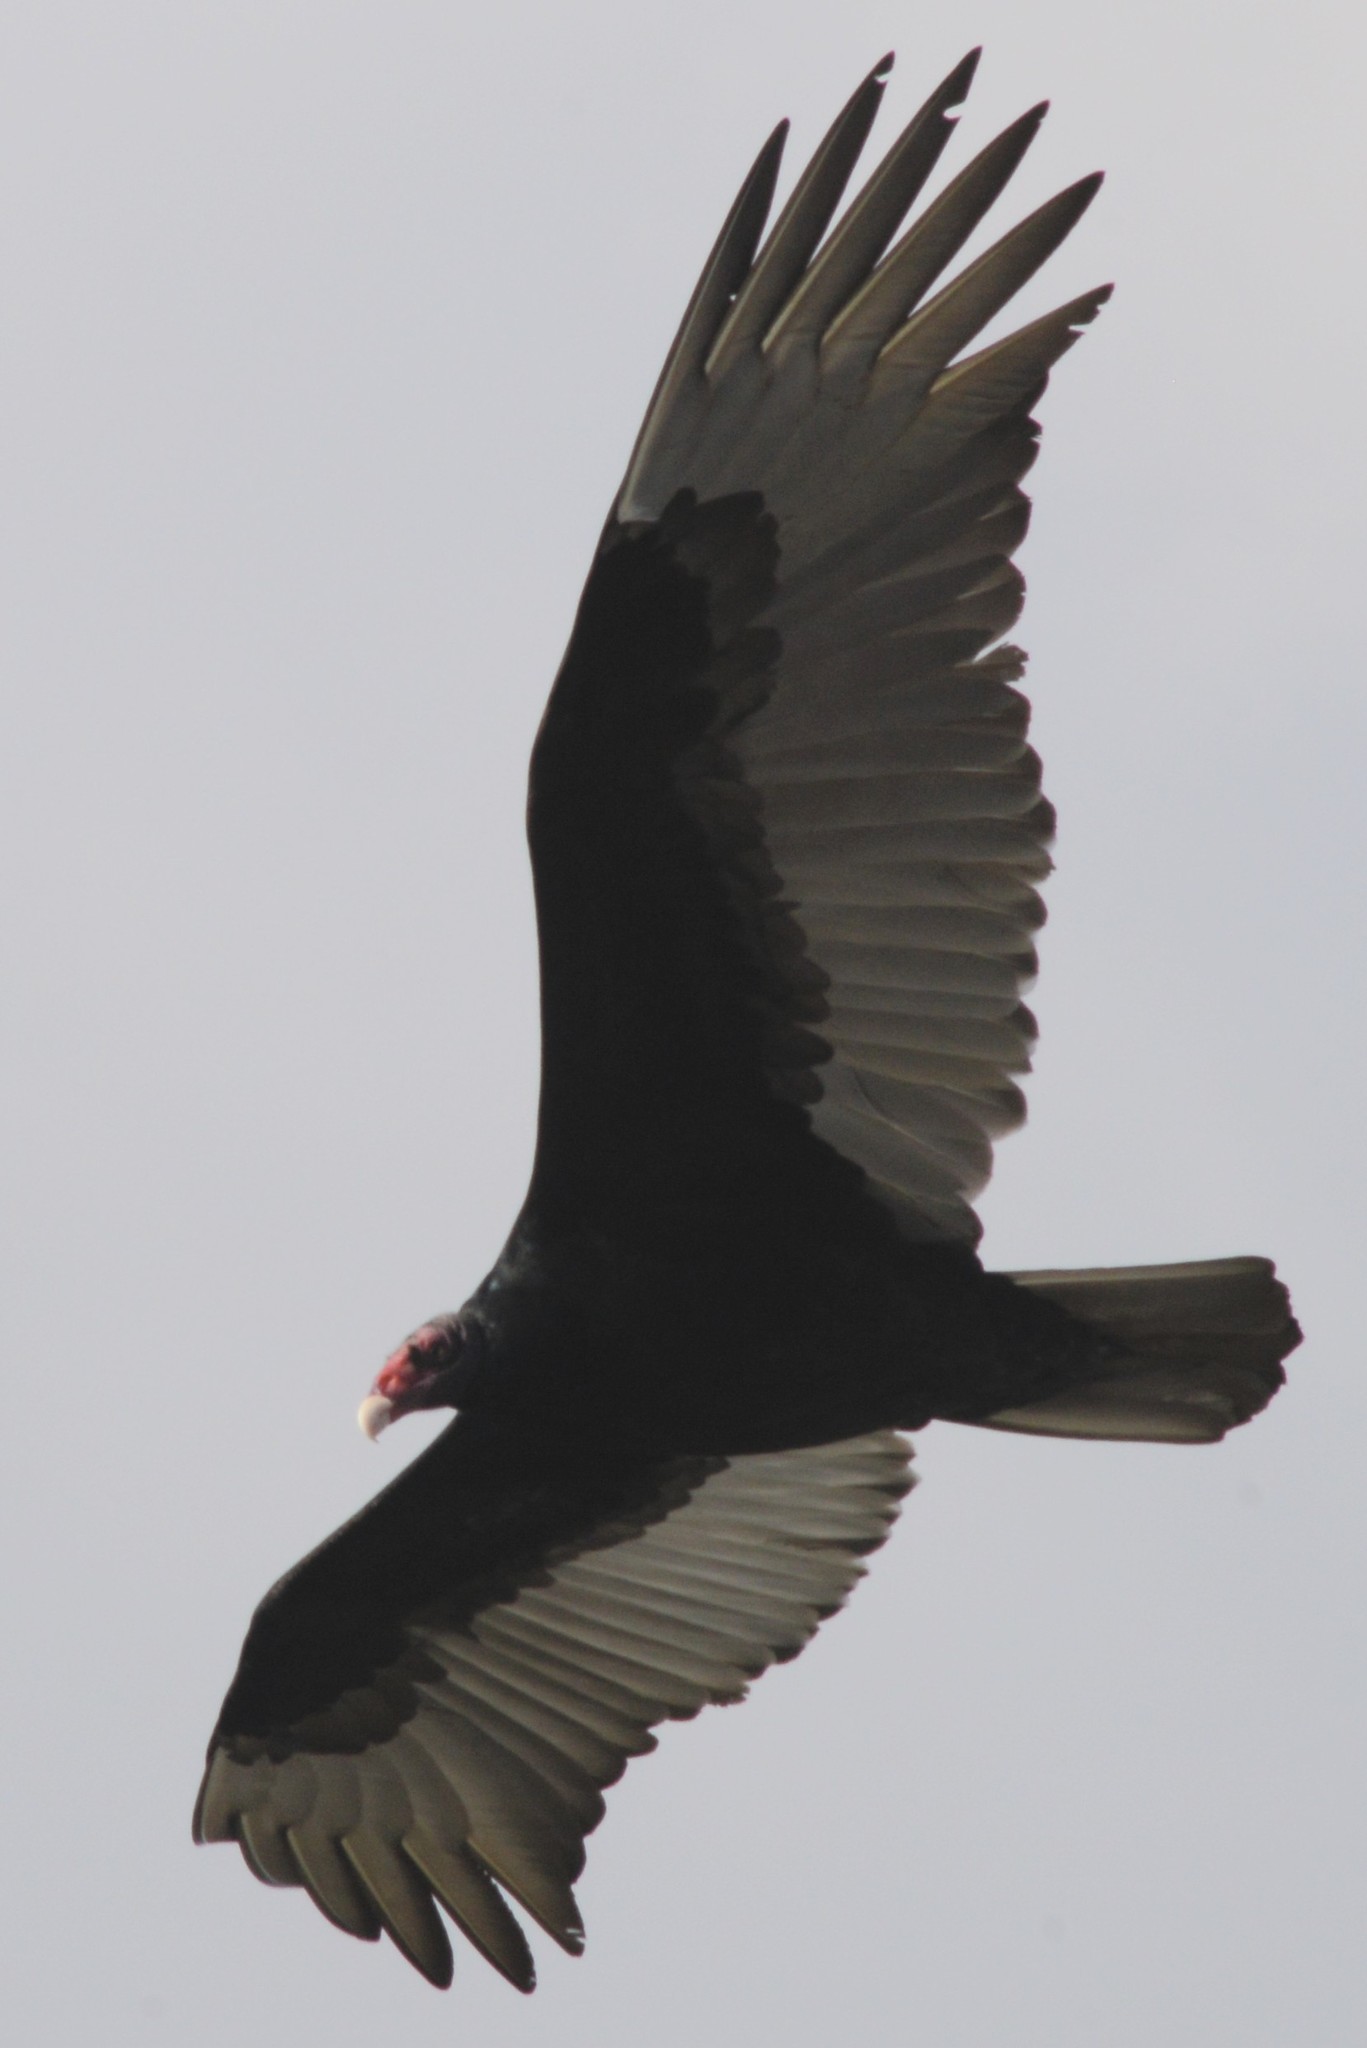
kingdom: Animalia
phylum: Chordata
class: Aves
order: Accipitriformes
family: Cathartidae
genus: Cathartes
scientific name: Cathartes aura
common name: Turkey vulture
